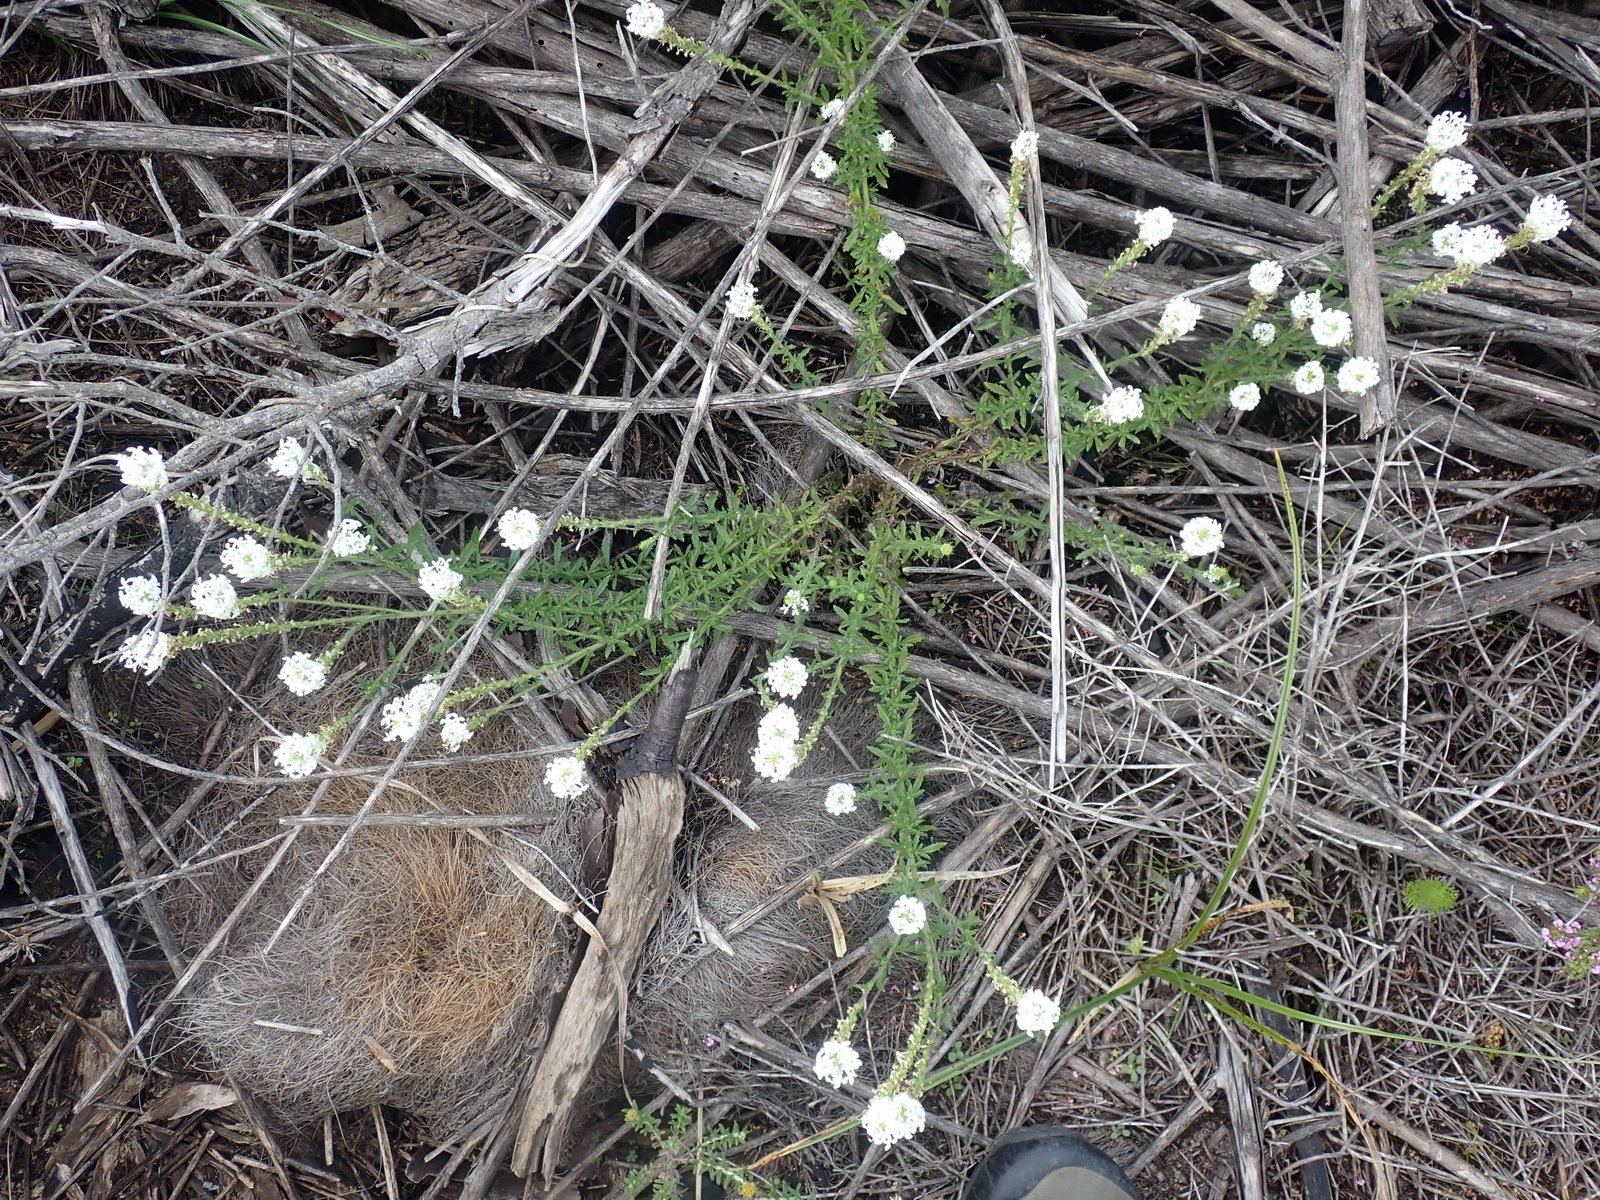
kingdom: Plantae
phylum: Tracheophyta
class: Magnoliopsida
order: Lamiales
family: Scrophulariaceae
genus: Dischisma
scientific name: Dischisma ciliatum
